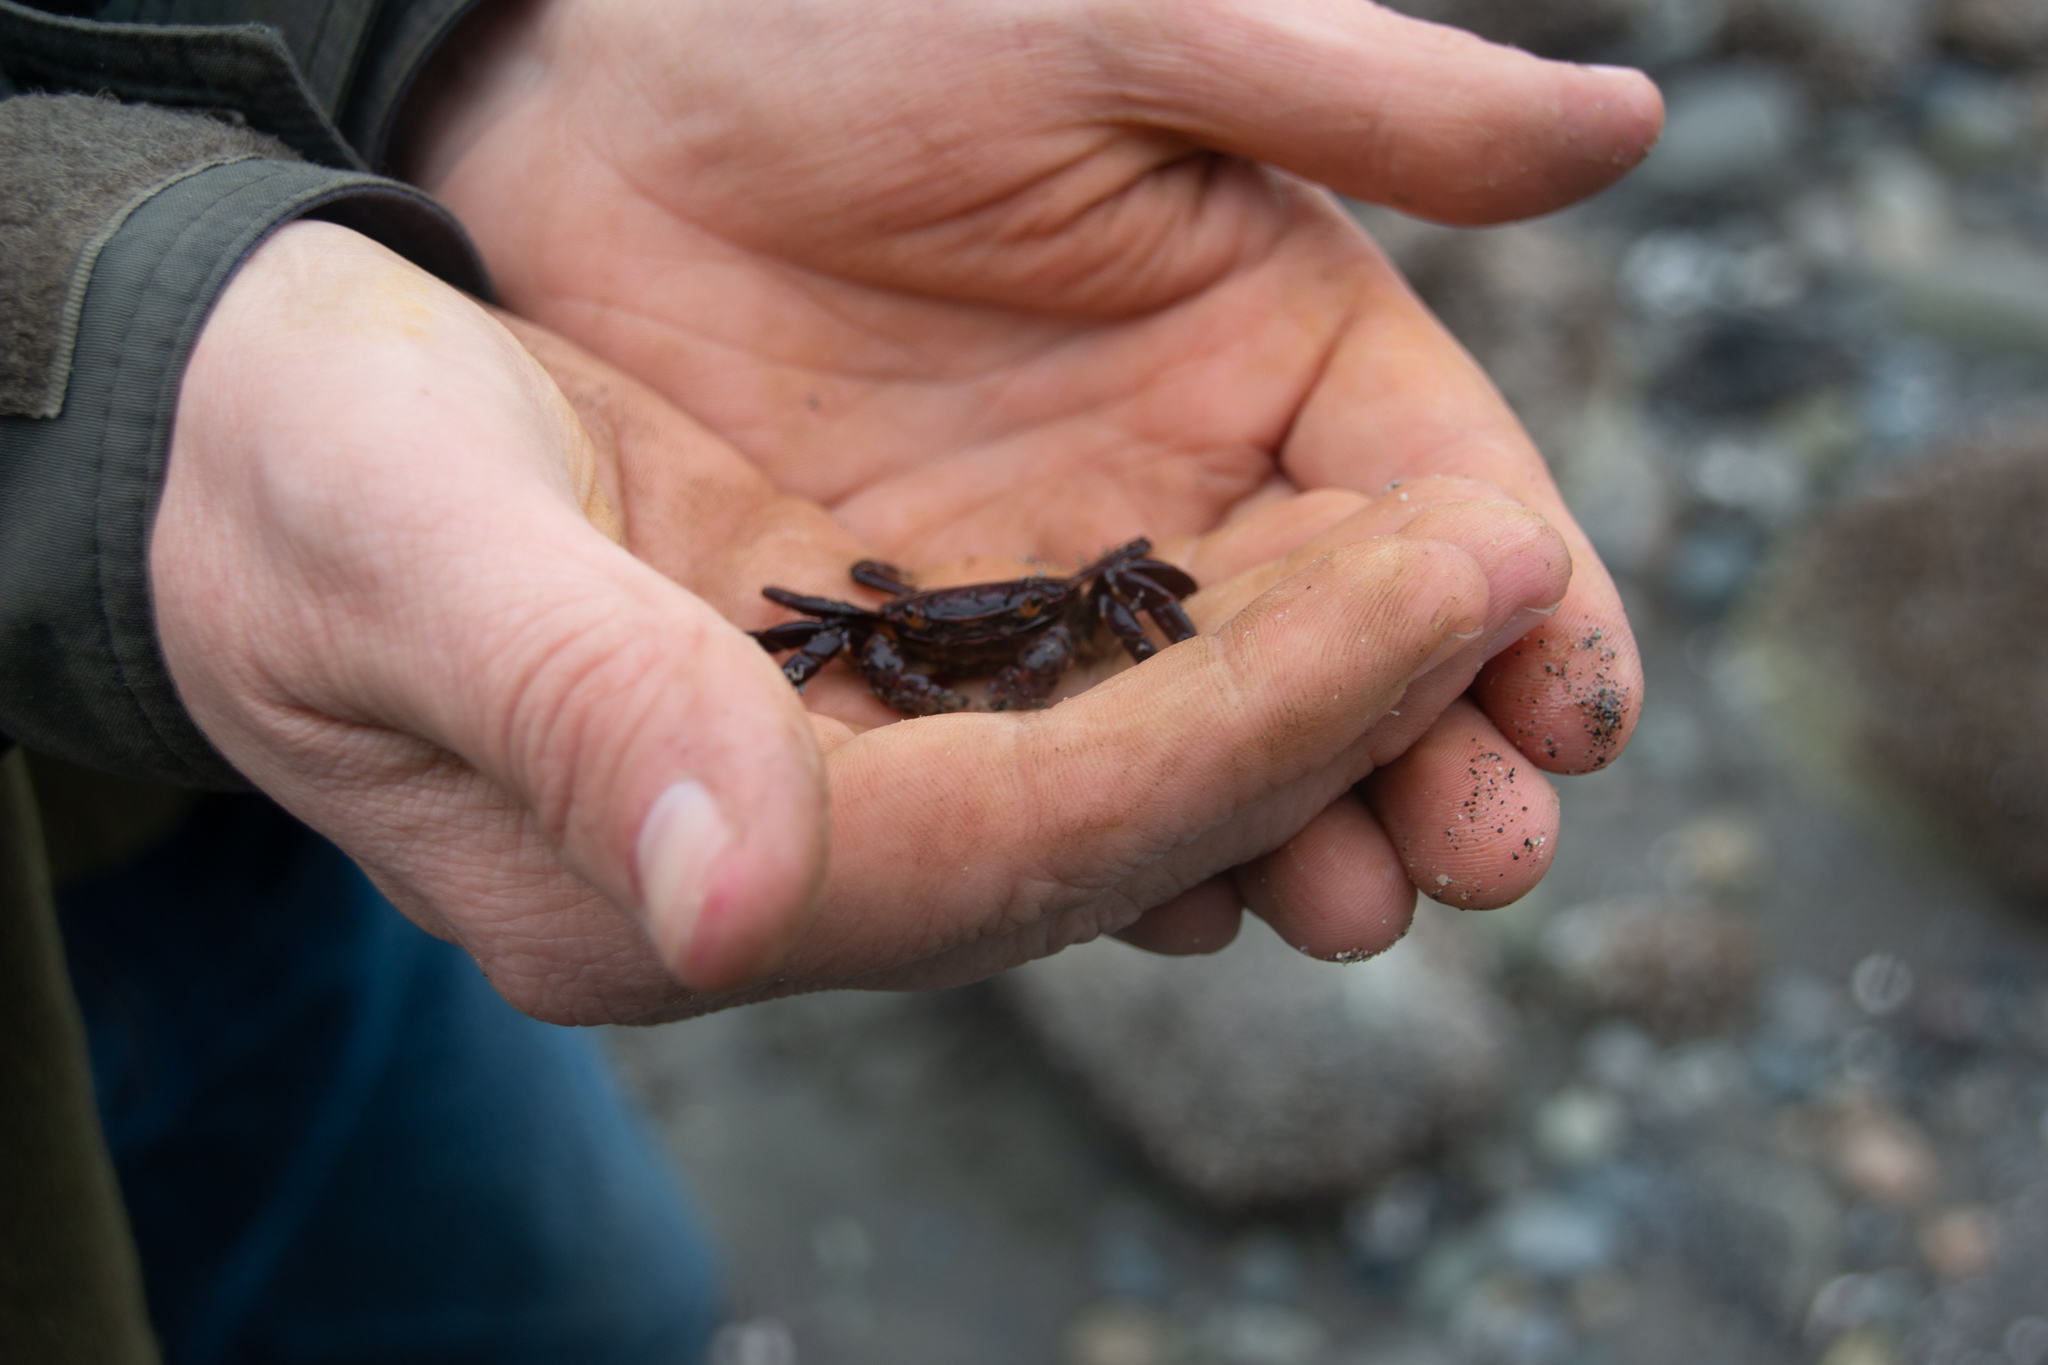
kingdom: Animalia
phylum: Arthropoda
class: Malacostraca
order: Decapoda
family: Varunidae
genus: Hemigrapsus
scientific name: Hemigrapsus nudus
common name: Purple shore crab
